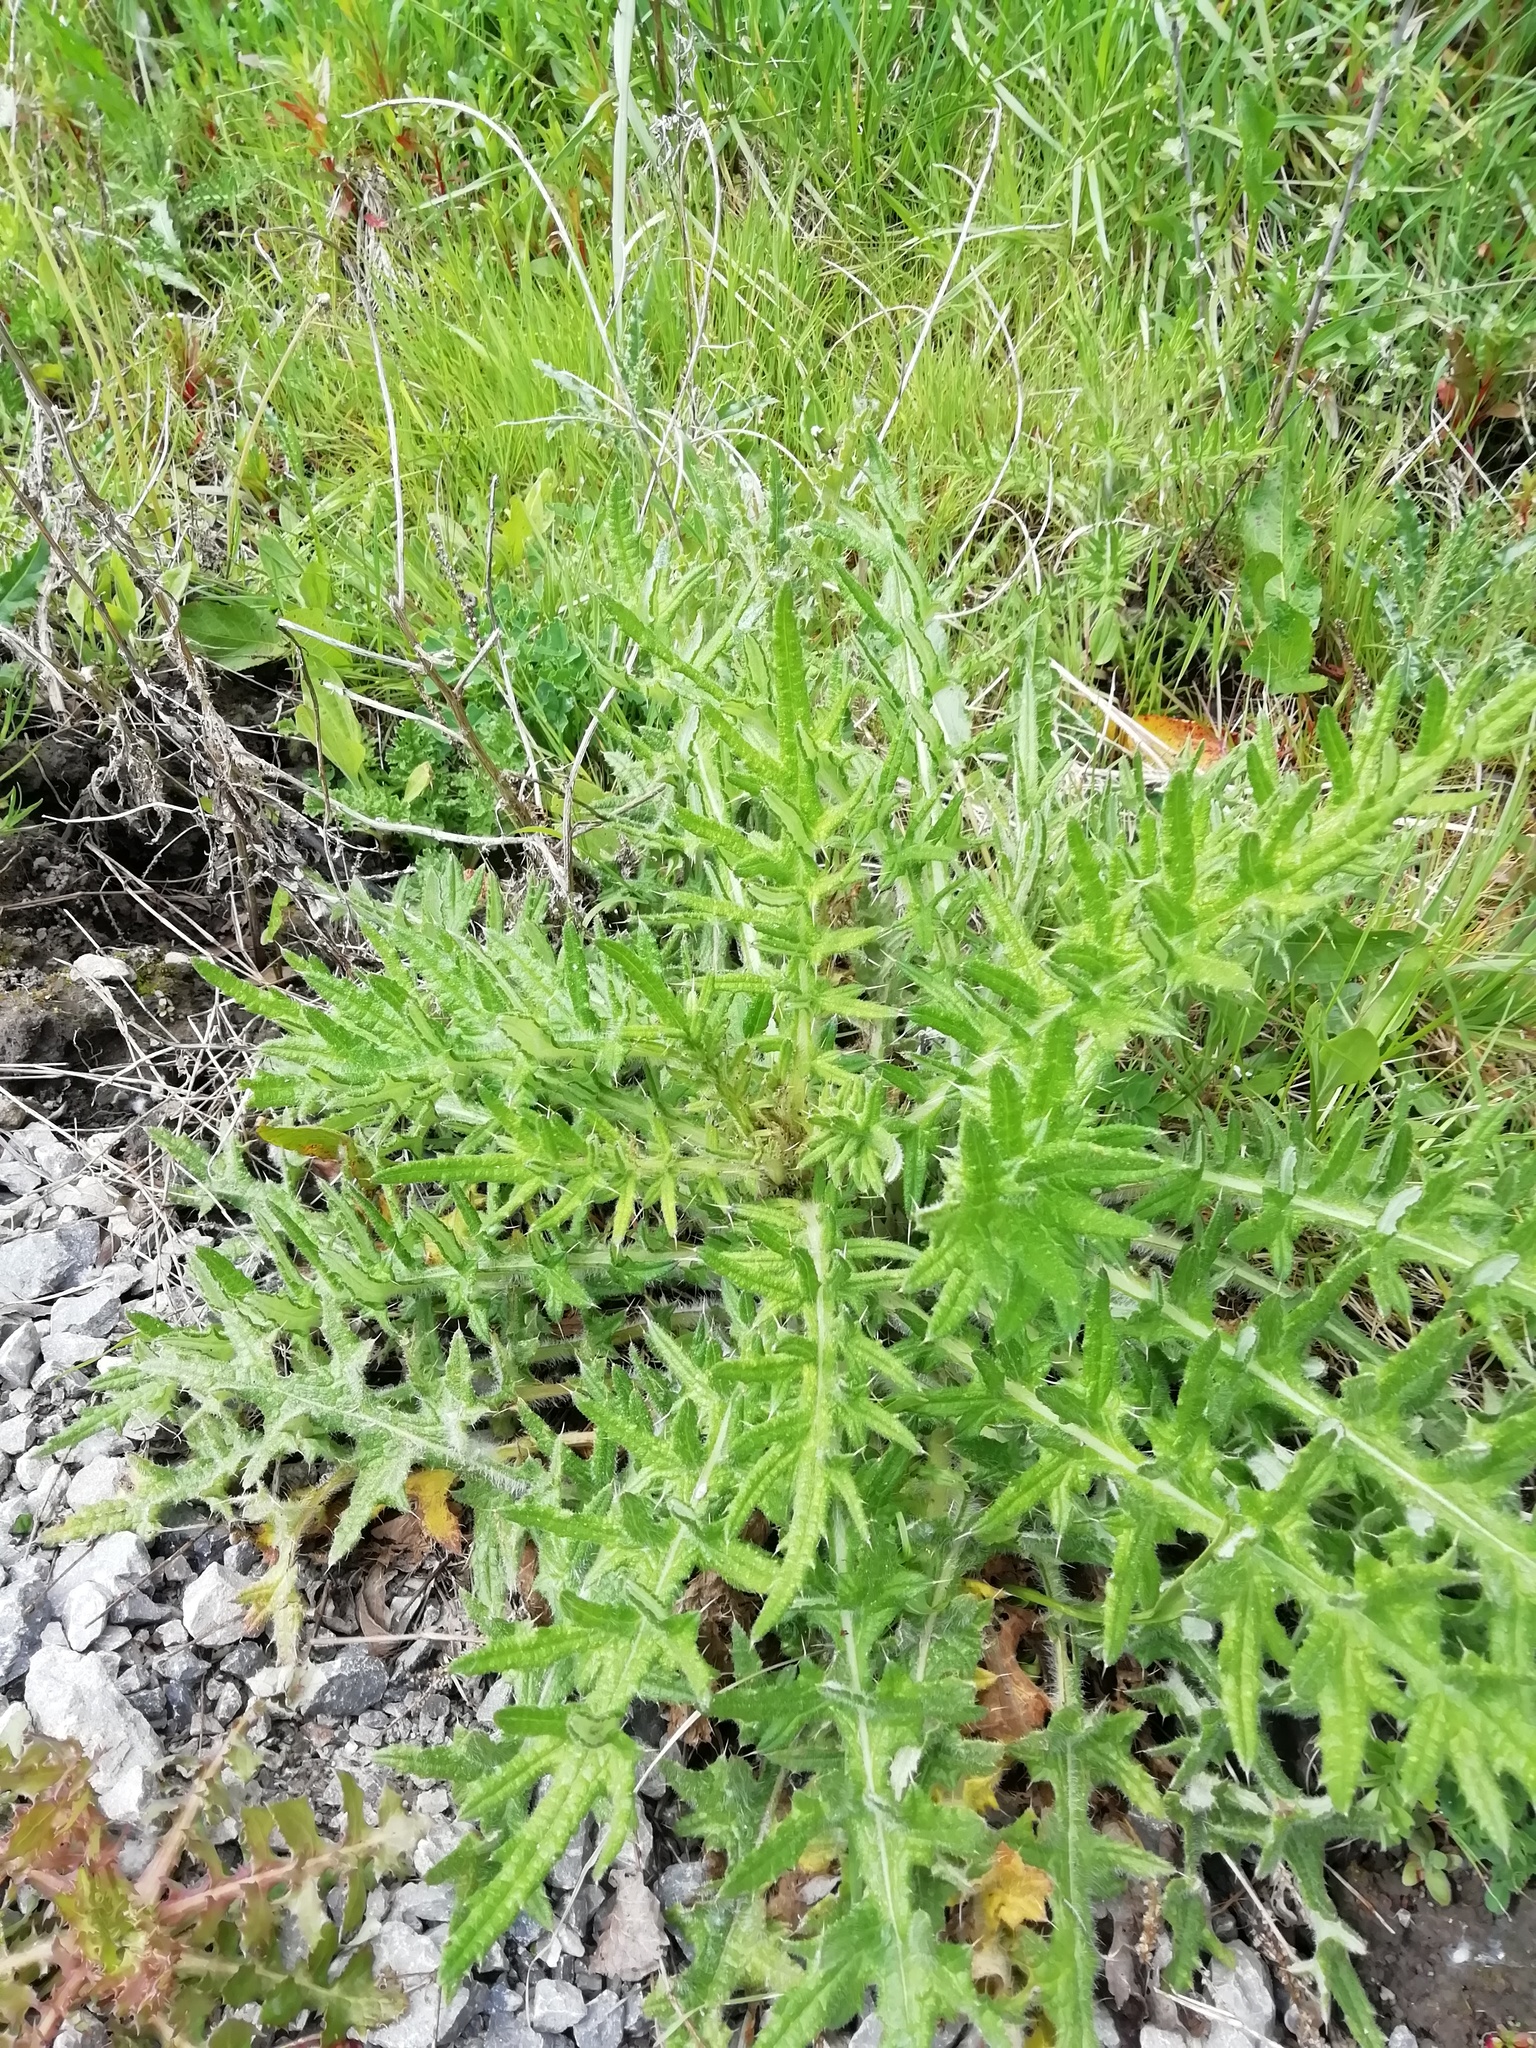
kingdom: Plantae
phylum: Tracheophyta
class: Magnoliopsida
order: Asterales
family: Asteraceae
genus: Cirsium
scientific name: Cirsium vulgare
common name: Bull thistle
